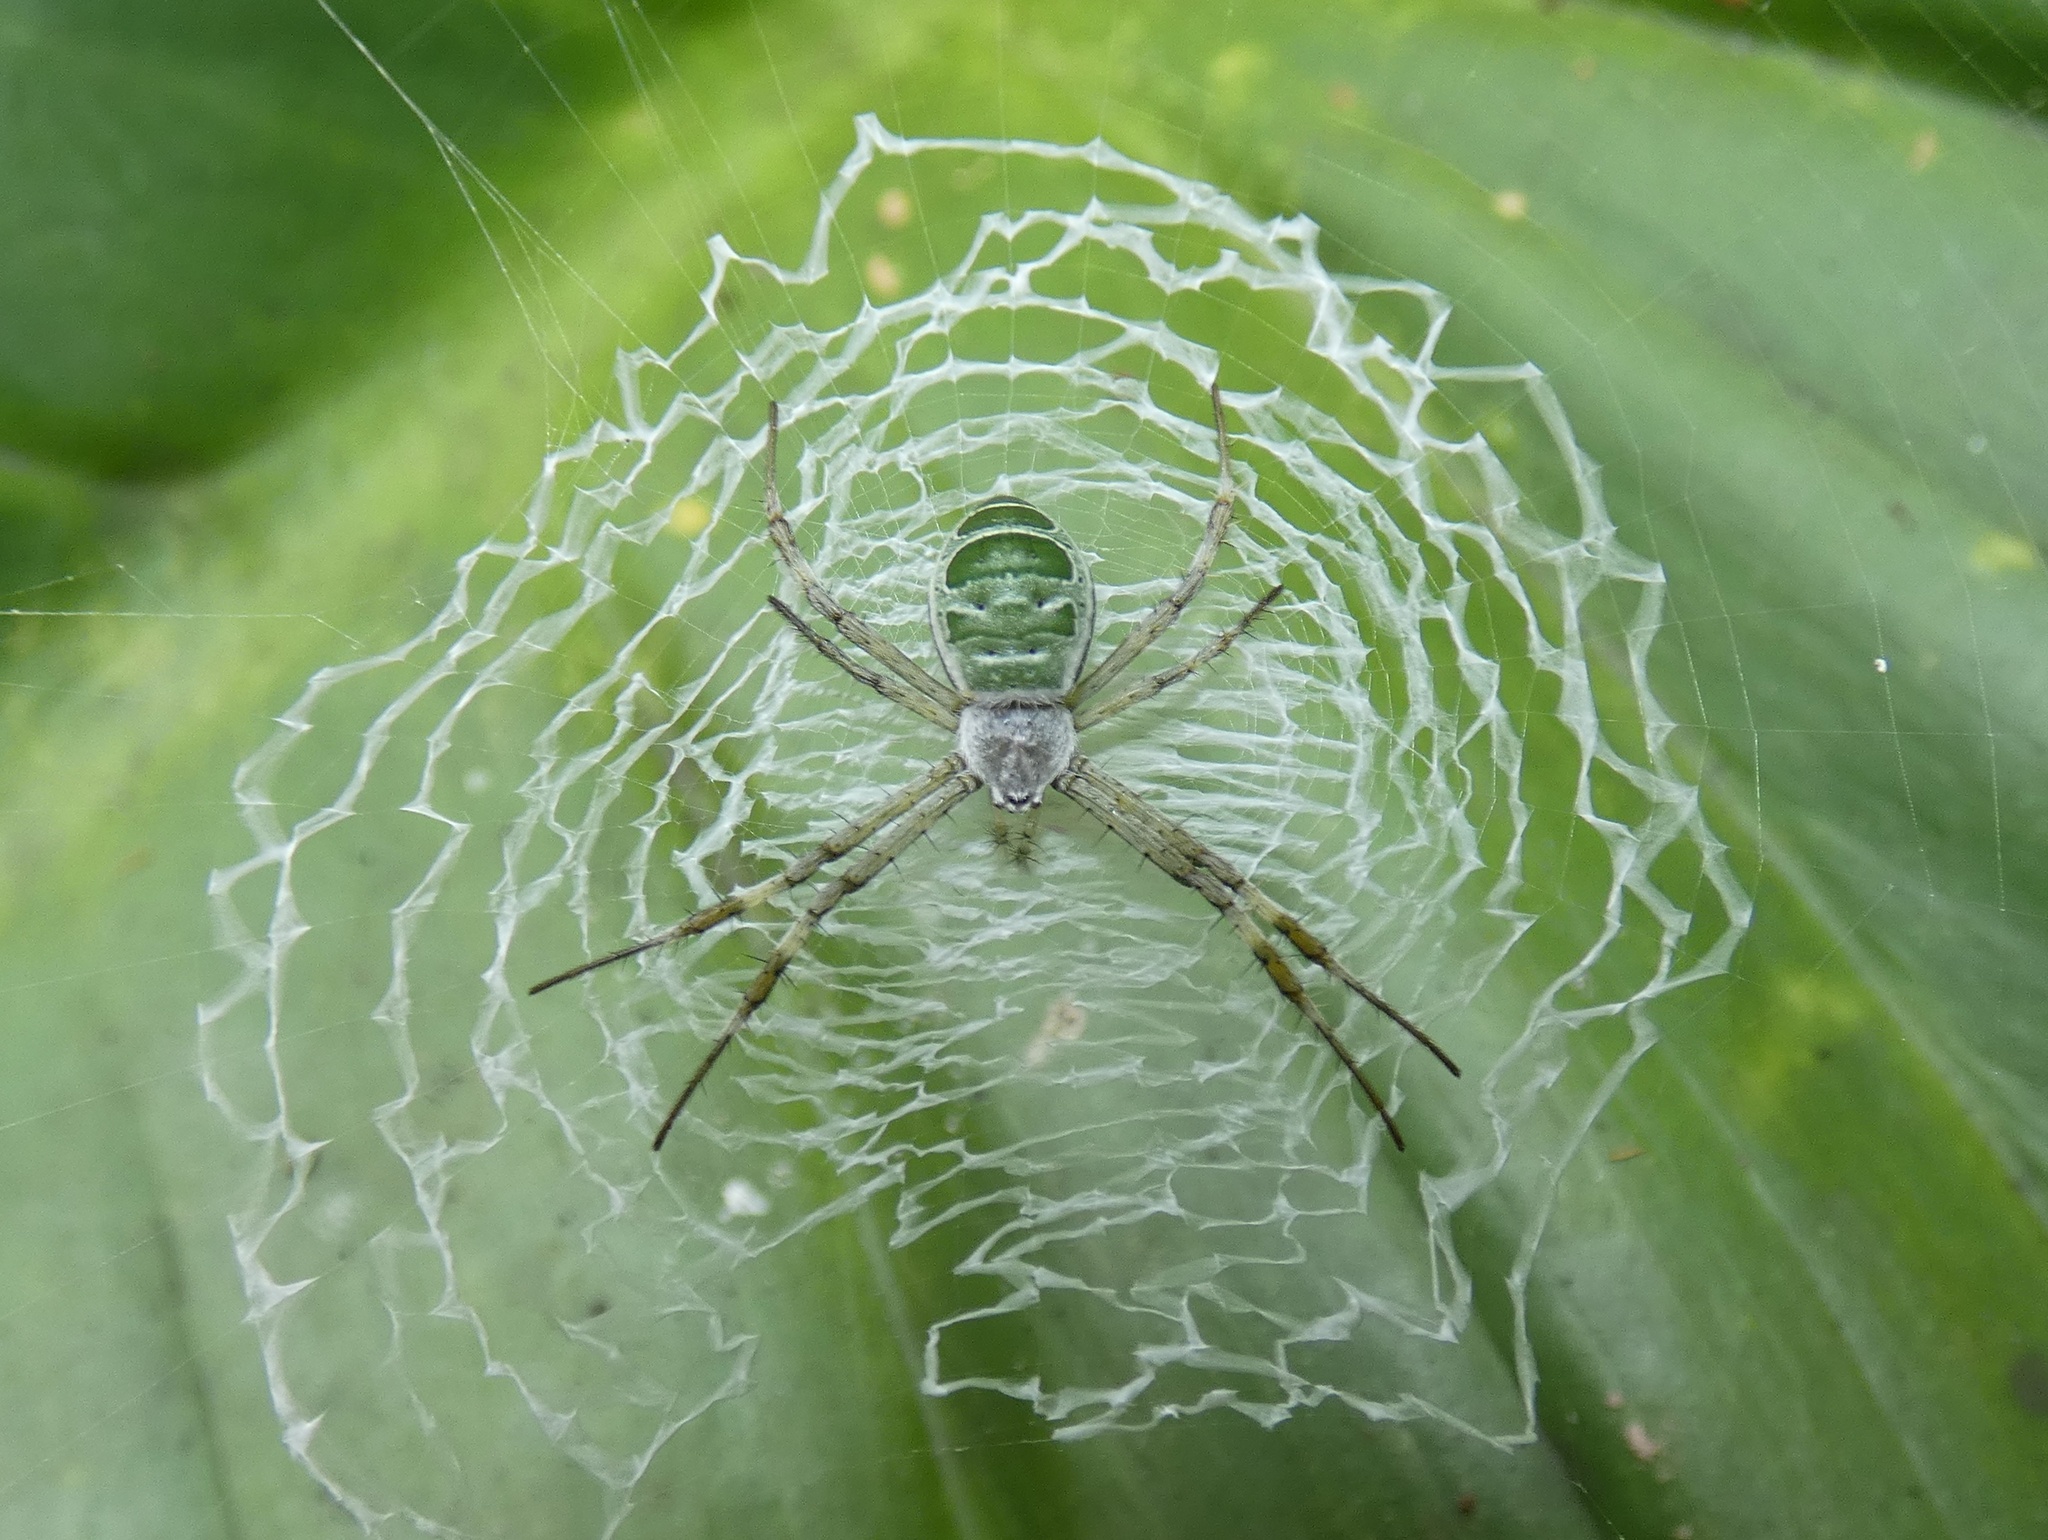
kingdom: Animalia
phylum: Arthropoda
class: Arachnida
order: Araneae
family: Araneidae
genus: Argiope
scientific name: Argiope chloreides
